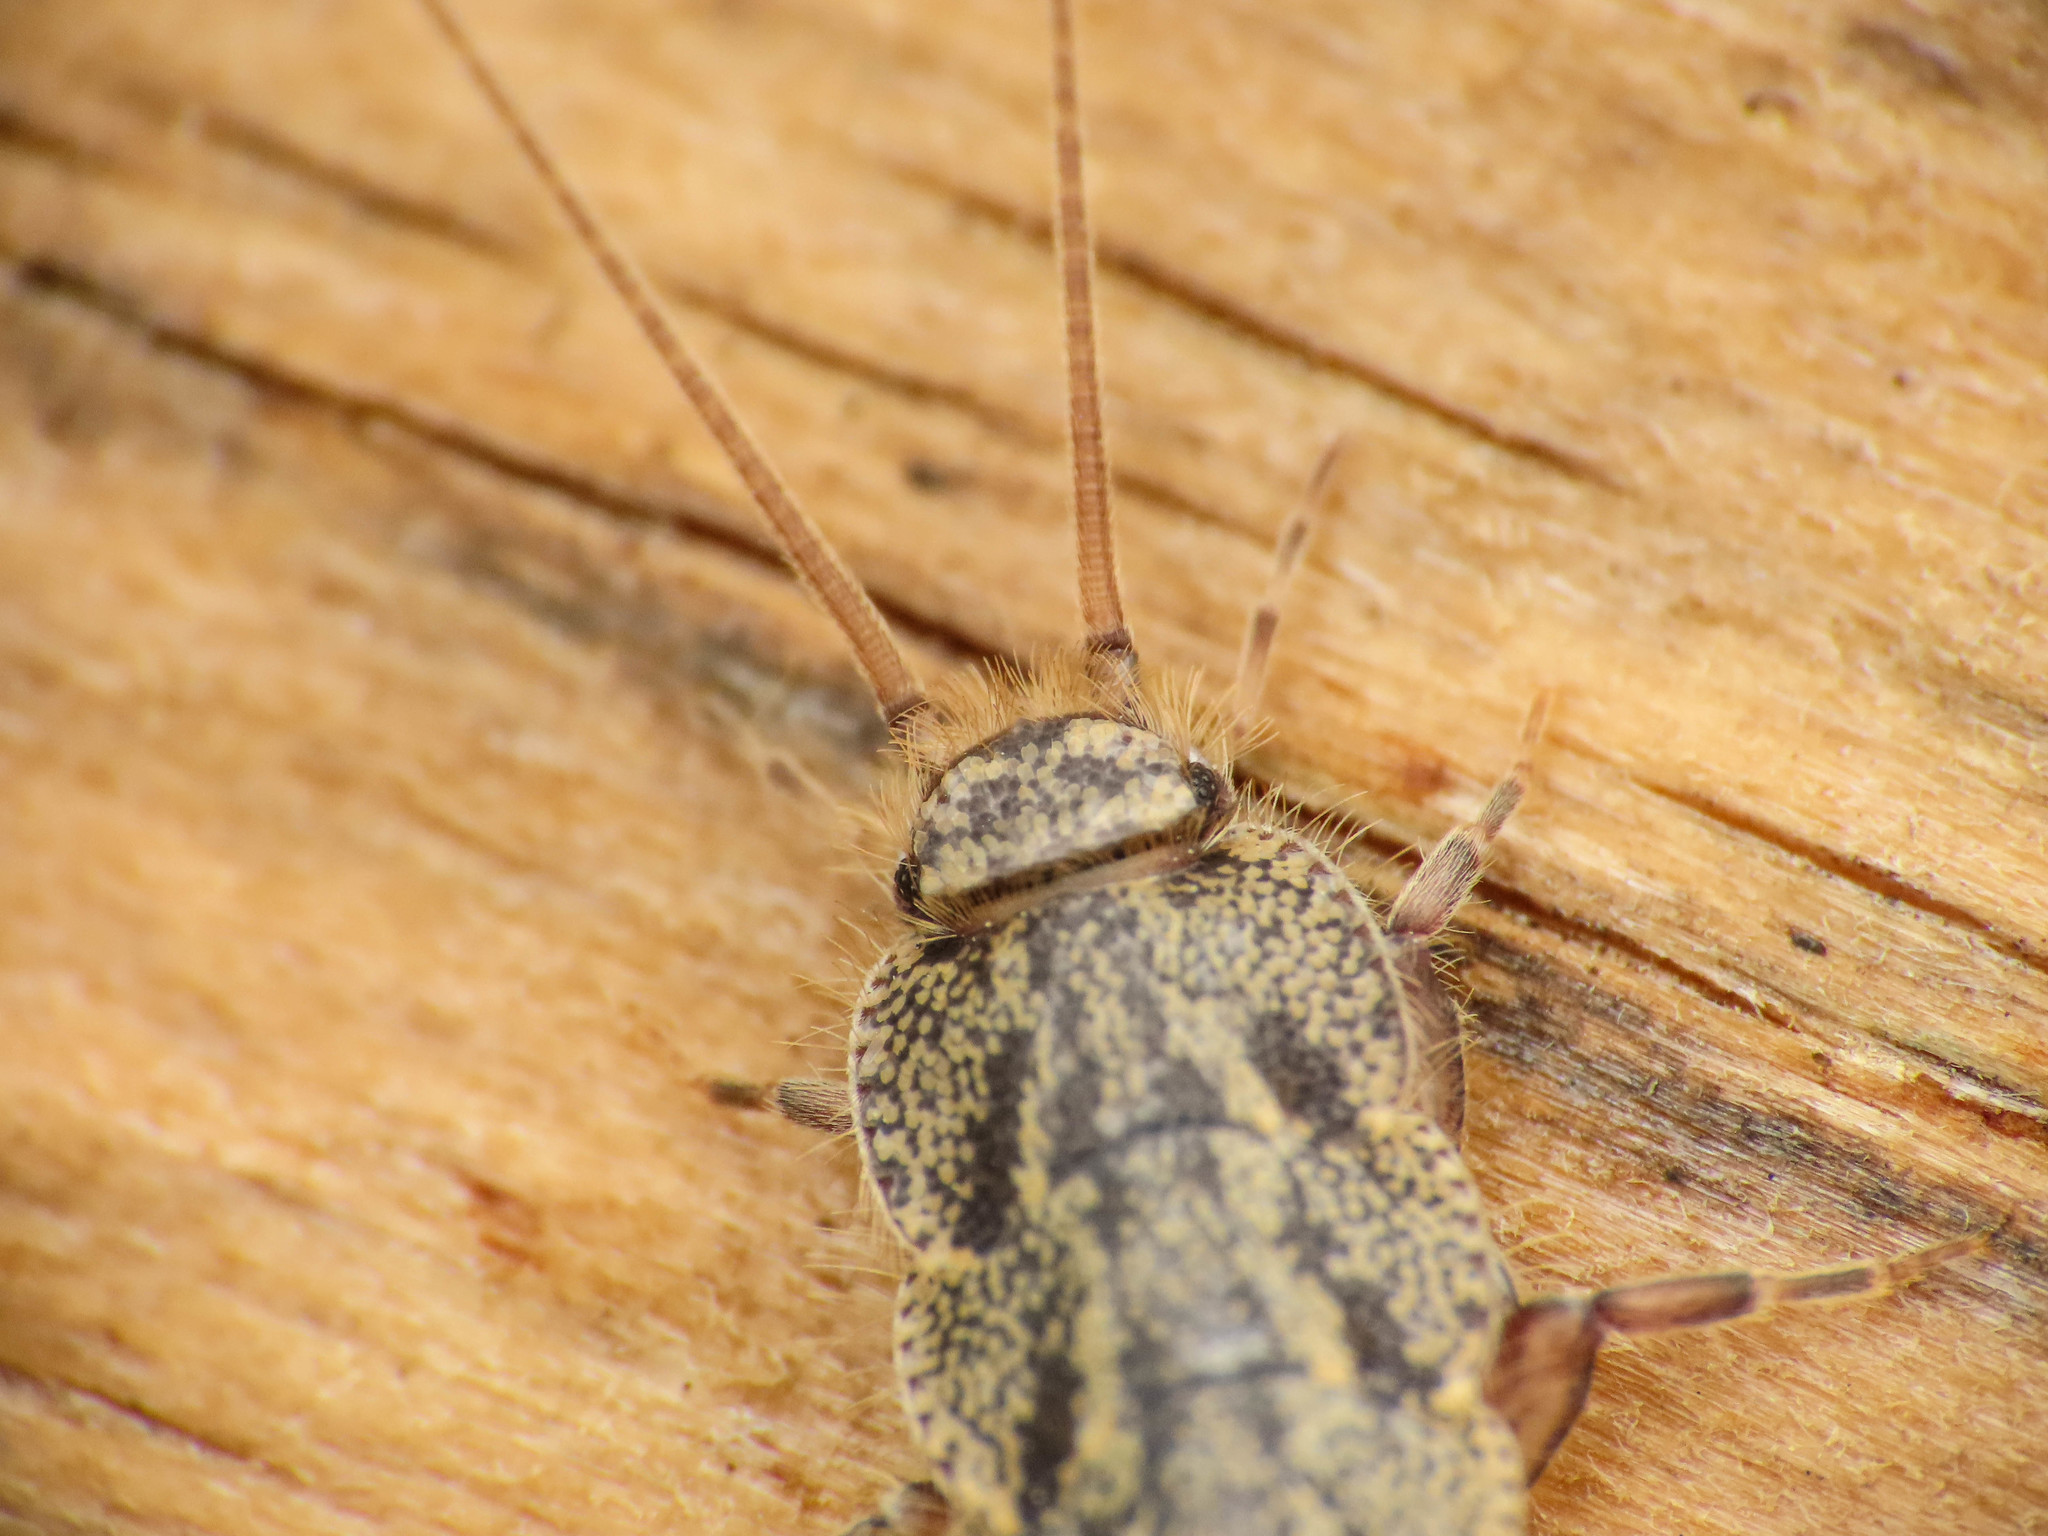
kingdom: Animalia
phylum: Arthropoda
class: Insecta
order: Zygentoma
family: Lepismatidae
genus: Ctenolepisma
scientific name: Ctenolepisma lineata
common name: Four-lined silverfish
